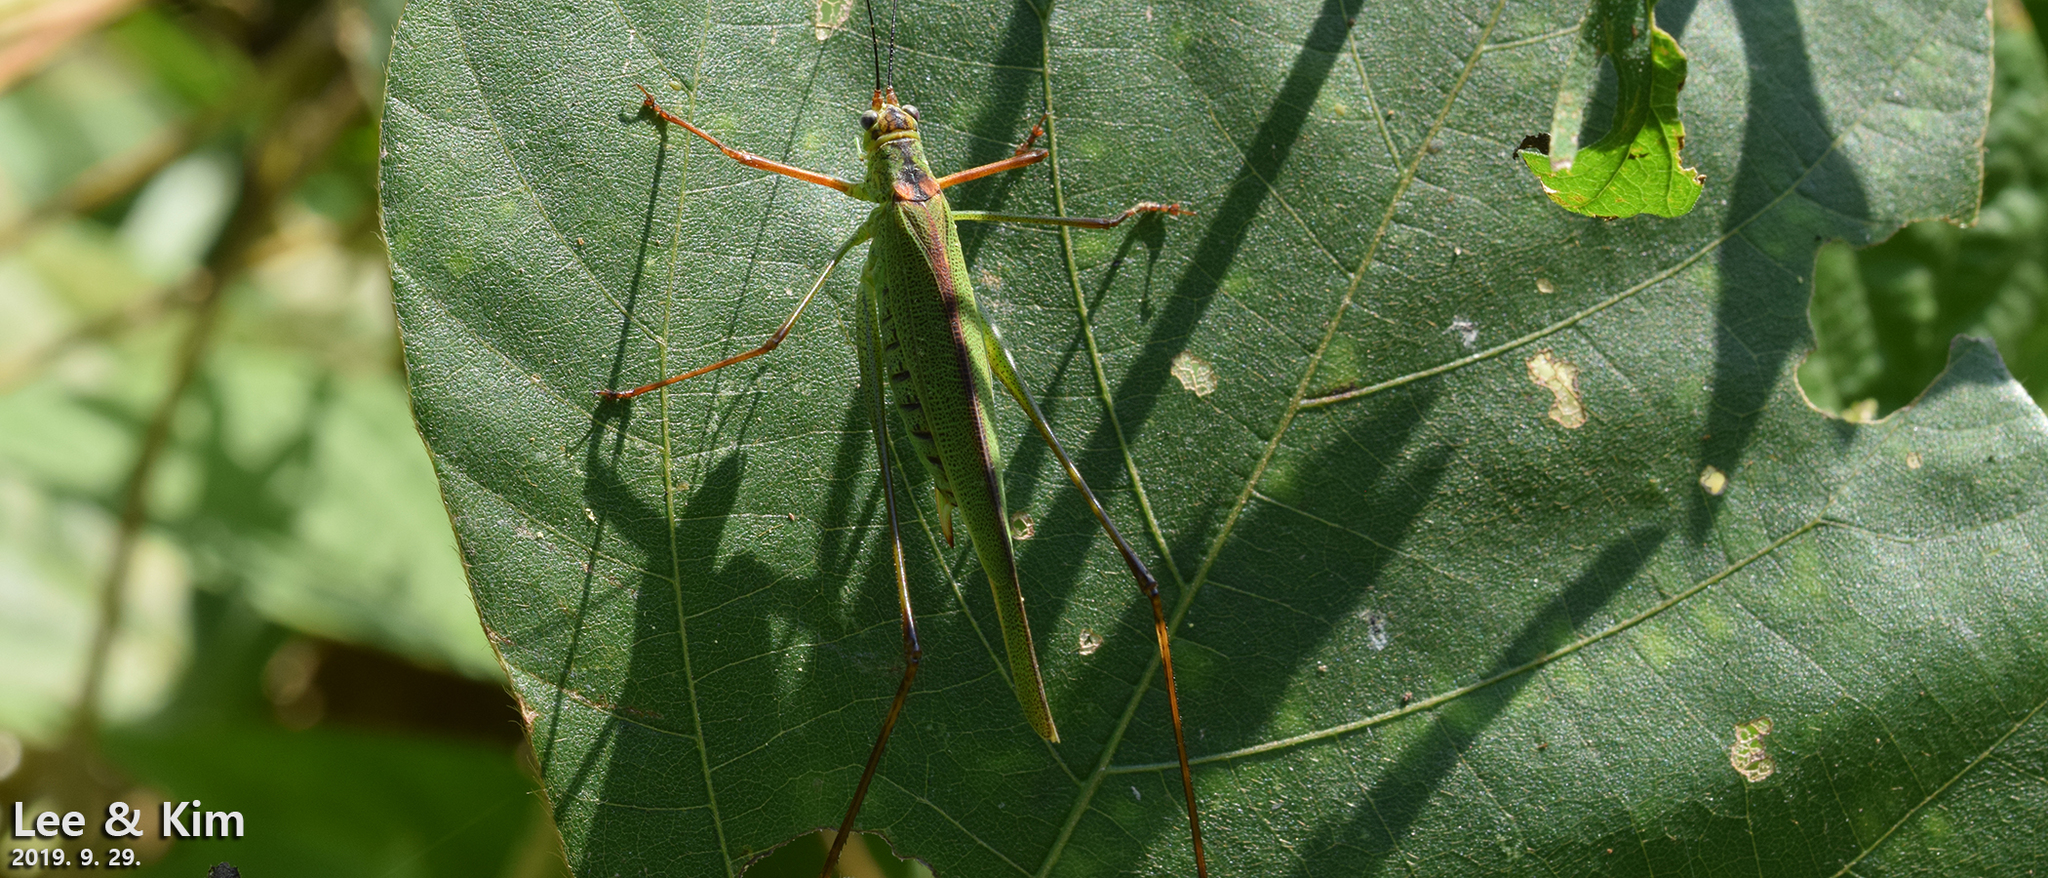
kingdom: Animalia
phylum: Arthropoda
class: Insecta
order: Orthoptera
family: Tettigoniidae
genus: Phaneroptera
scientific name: Phaneroptera nigroantennata
